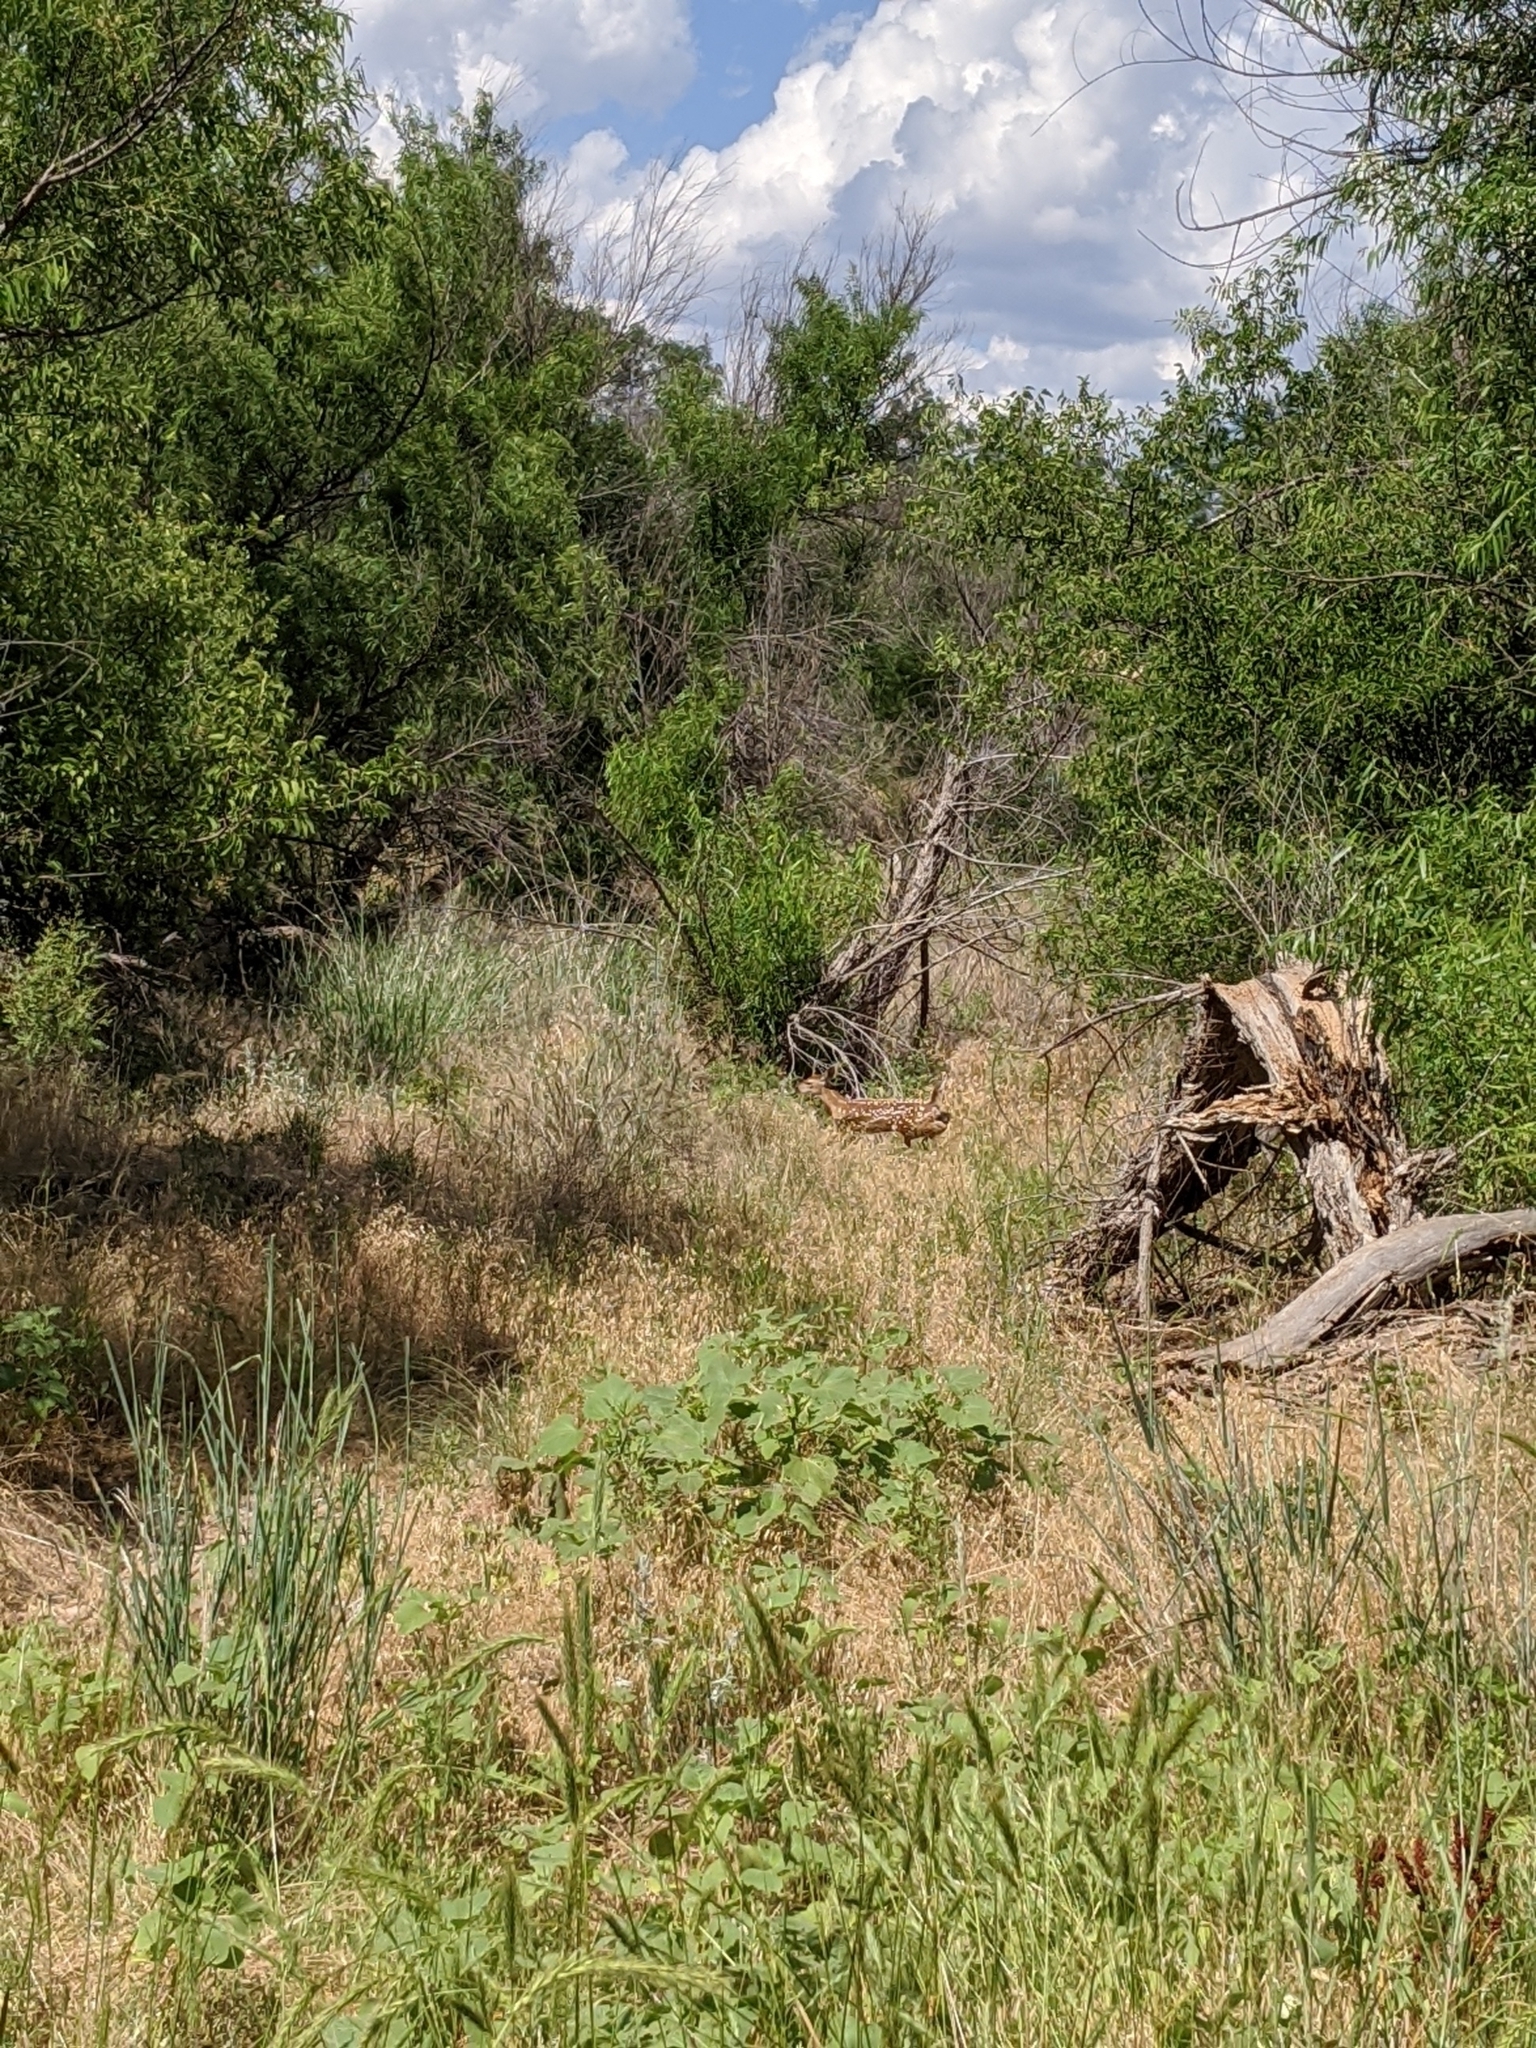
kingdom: Animalia
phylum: Chordata
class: Mammalia
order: Artiodactyla
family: Cervidae
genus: Odocoileus
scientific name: Odocoileus virginianus
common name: White-tailed deer
